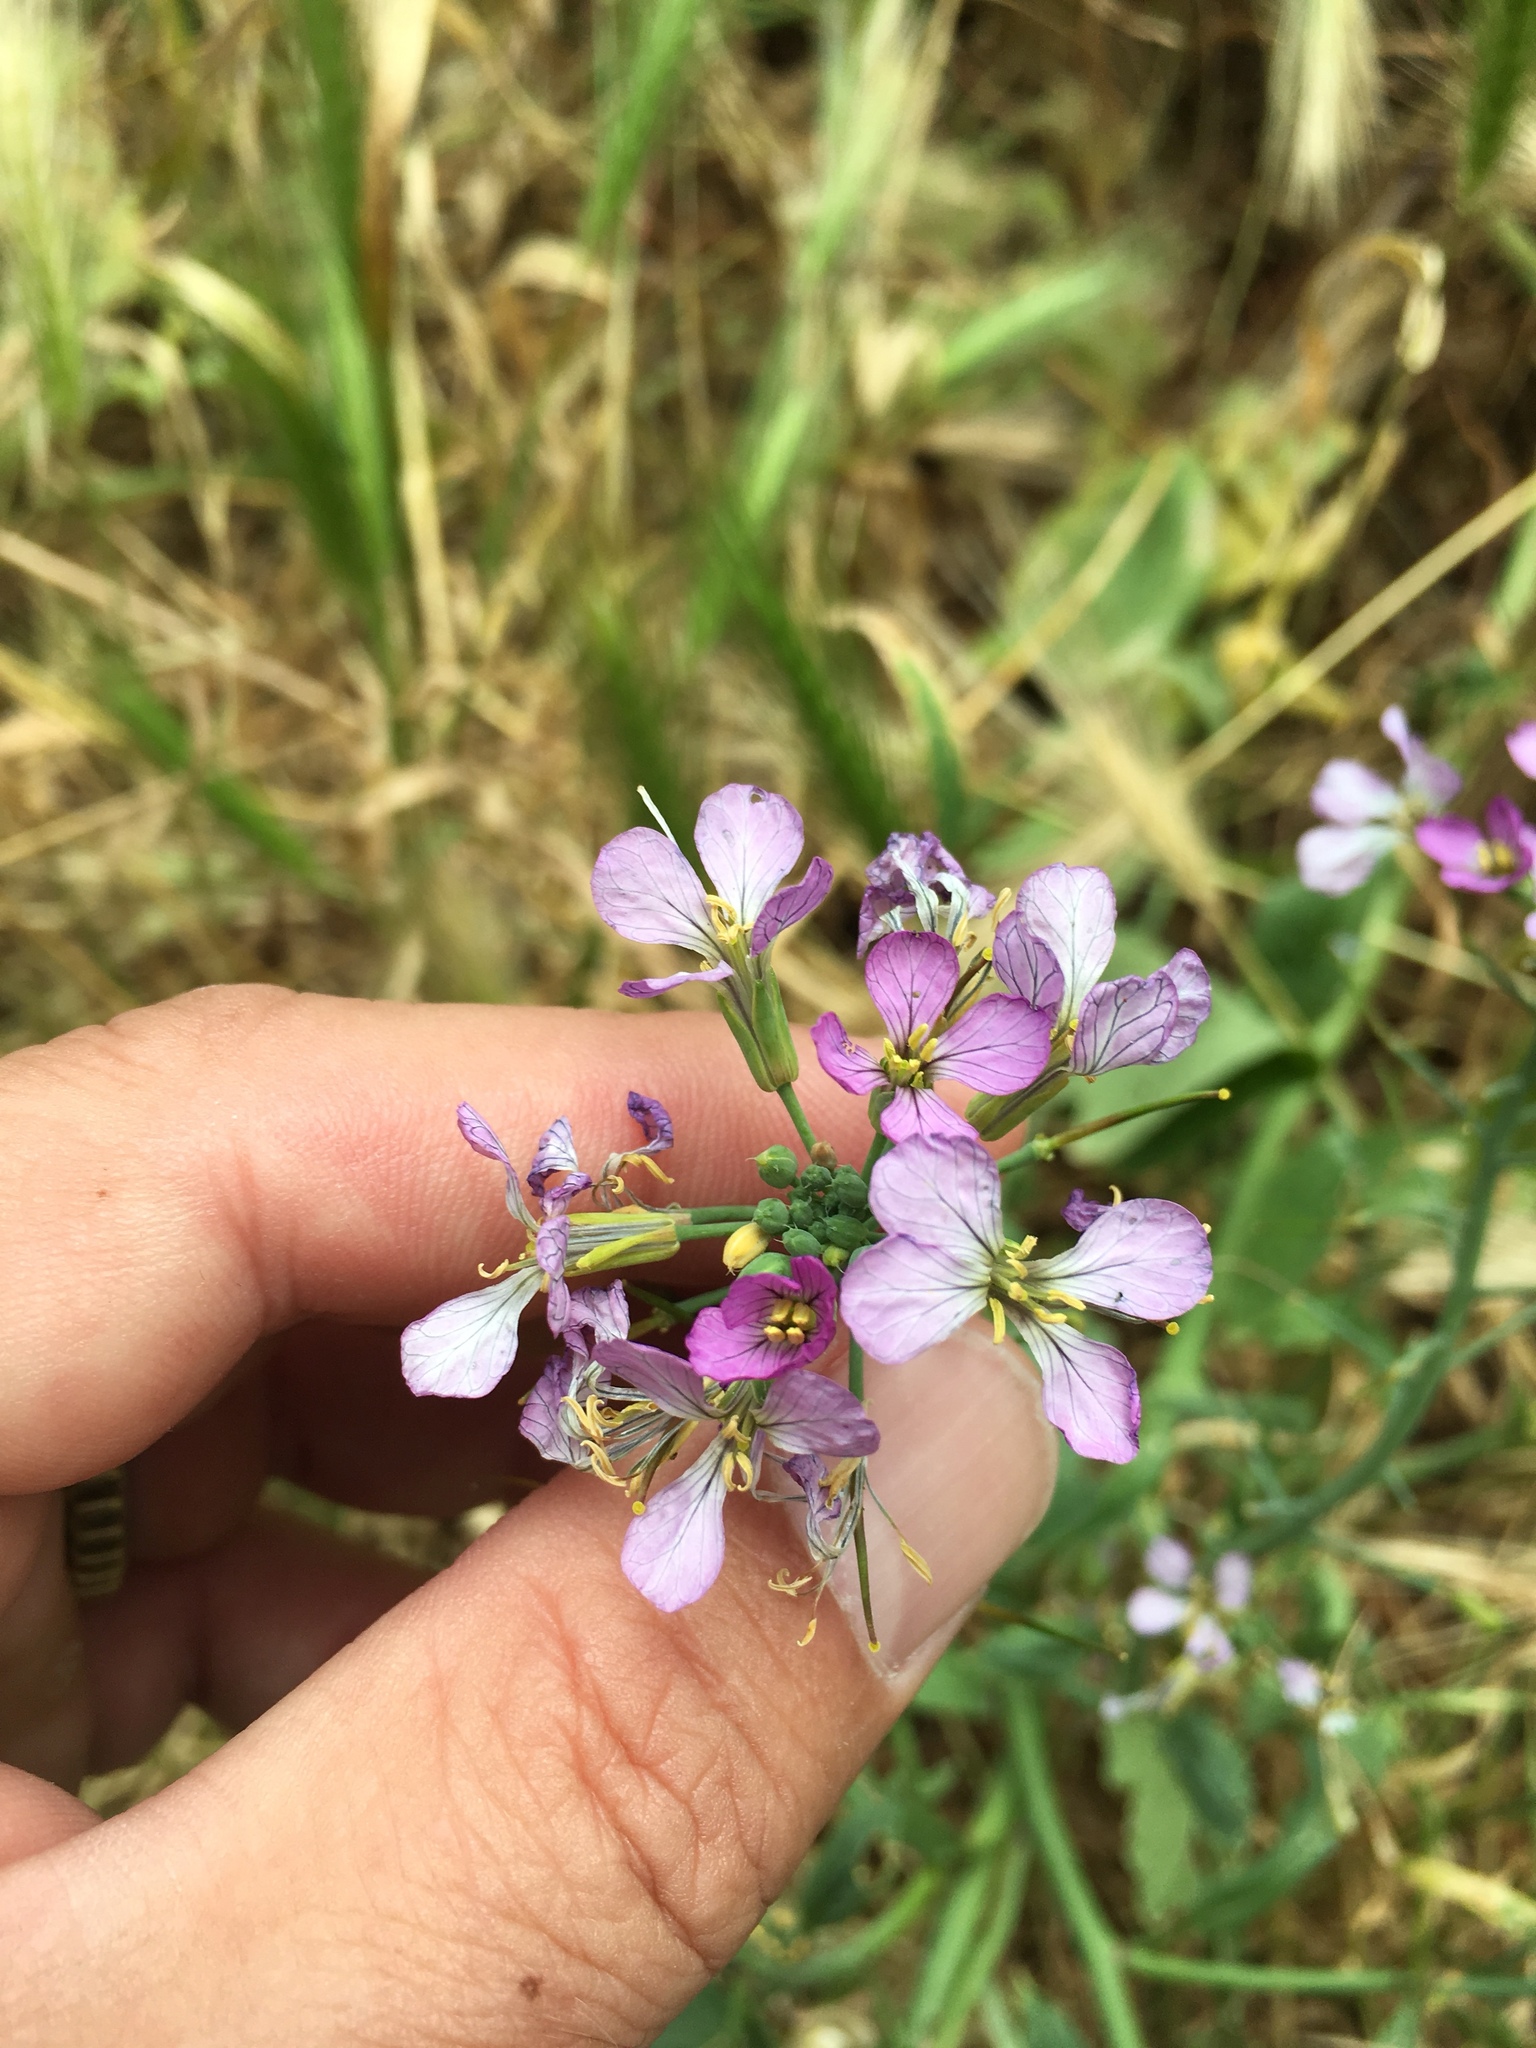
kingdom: Plantae
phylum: Tracheophyta
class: Magnoliopsida
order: Brassicales
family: Brassicaceae
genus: Raphanus
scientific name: Raphanus sativus
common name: Cultivated radish
